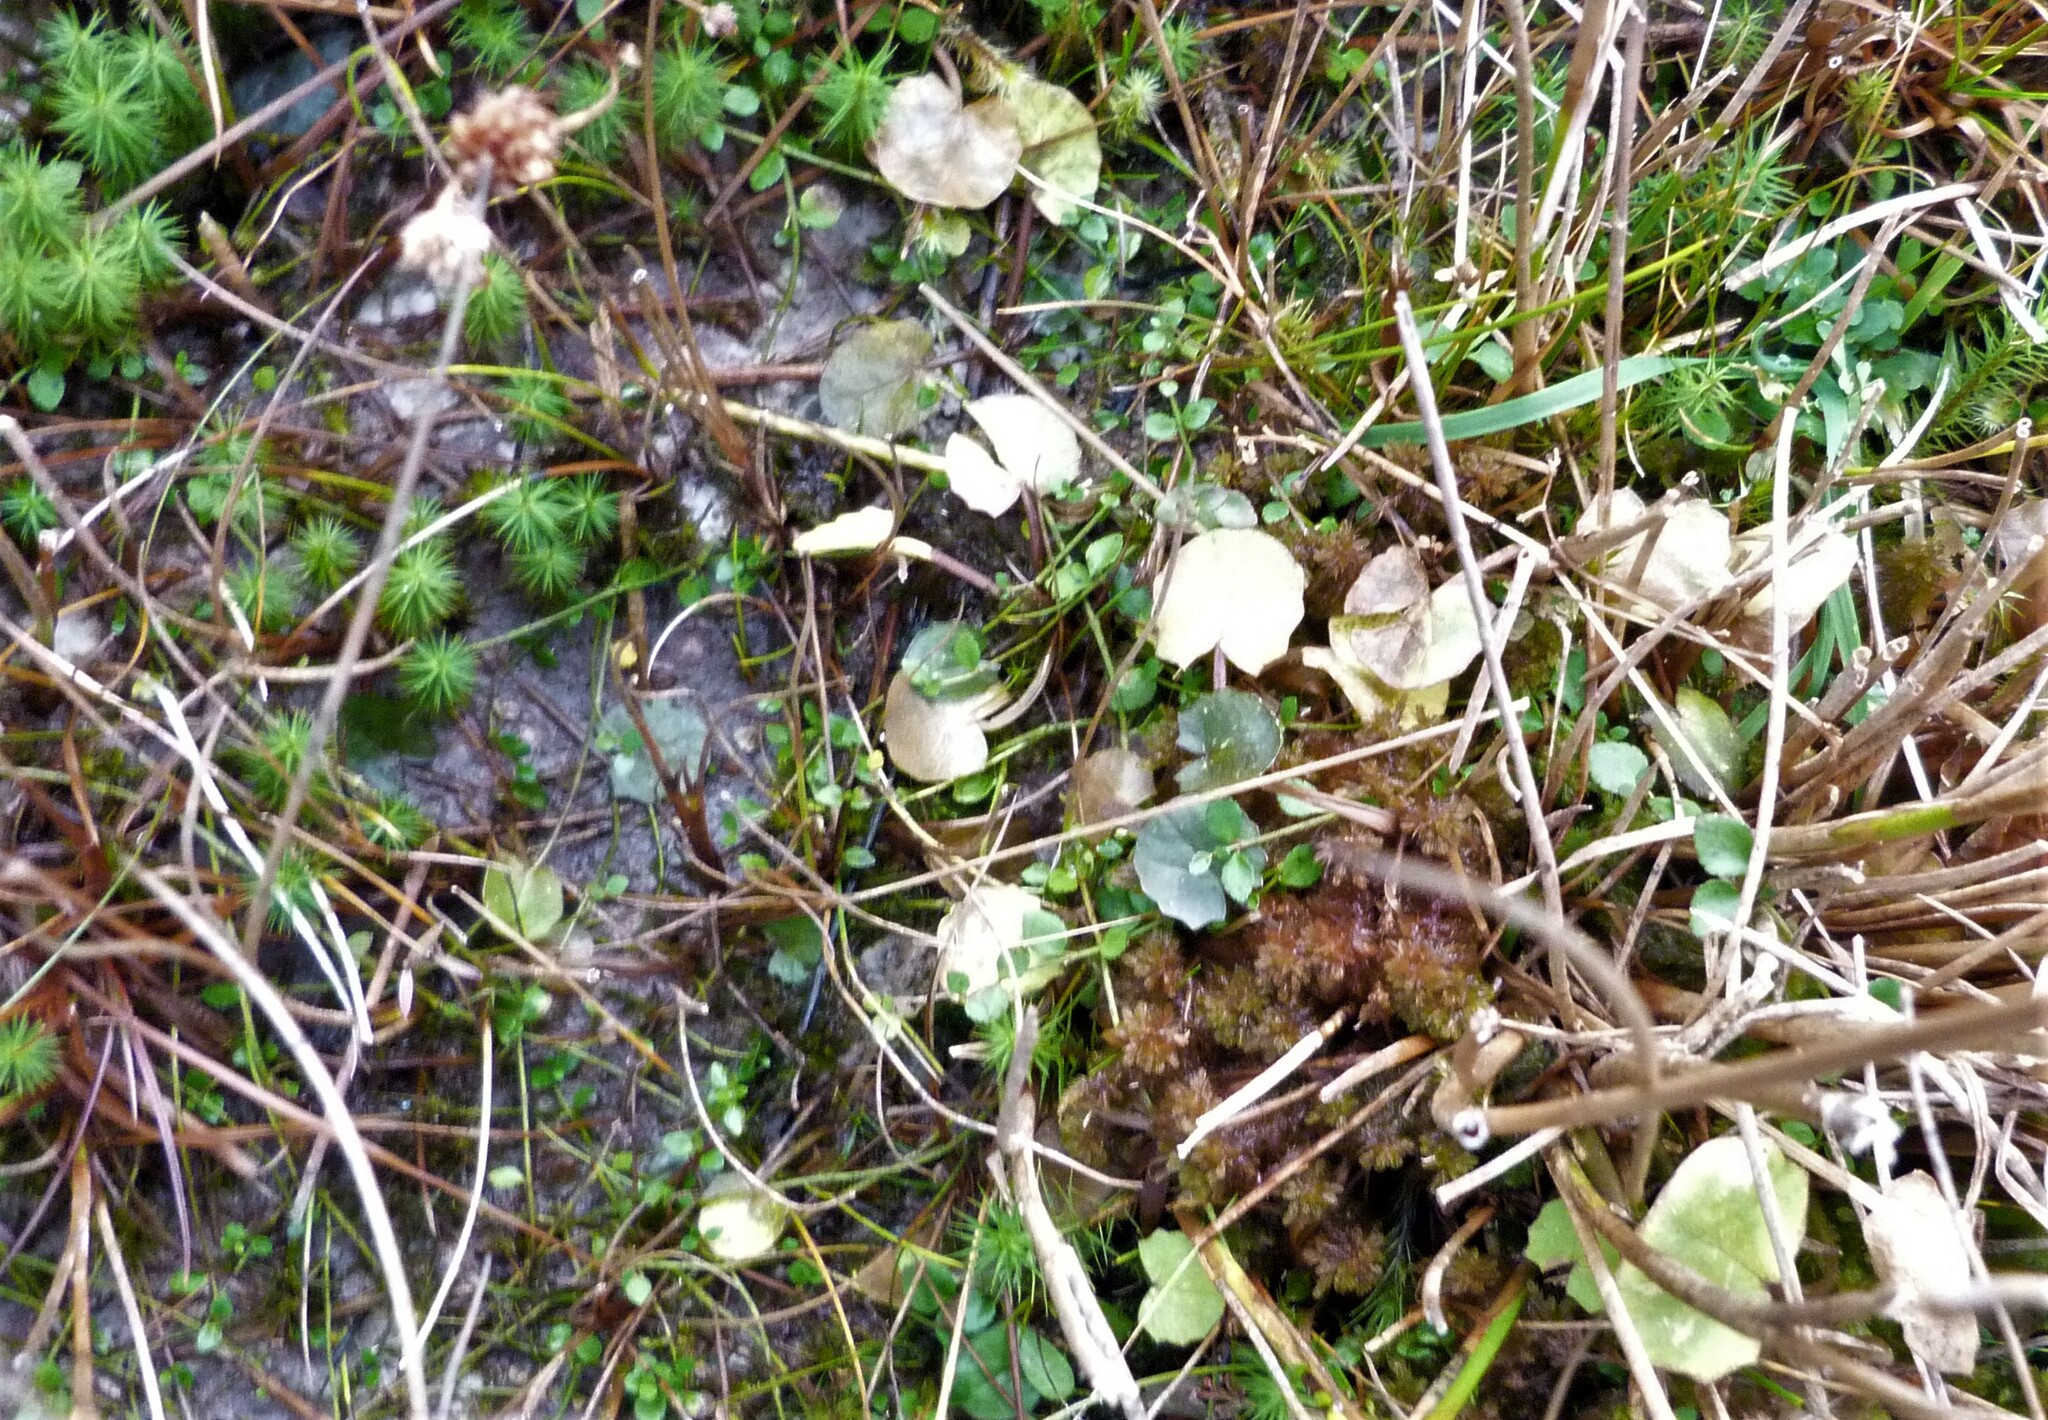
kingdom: Plantae
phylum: Tracheophyta
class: Magnoliopsida
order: Apiales
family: Apiaceae
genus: Centella
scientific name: Centella uniflora
